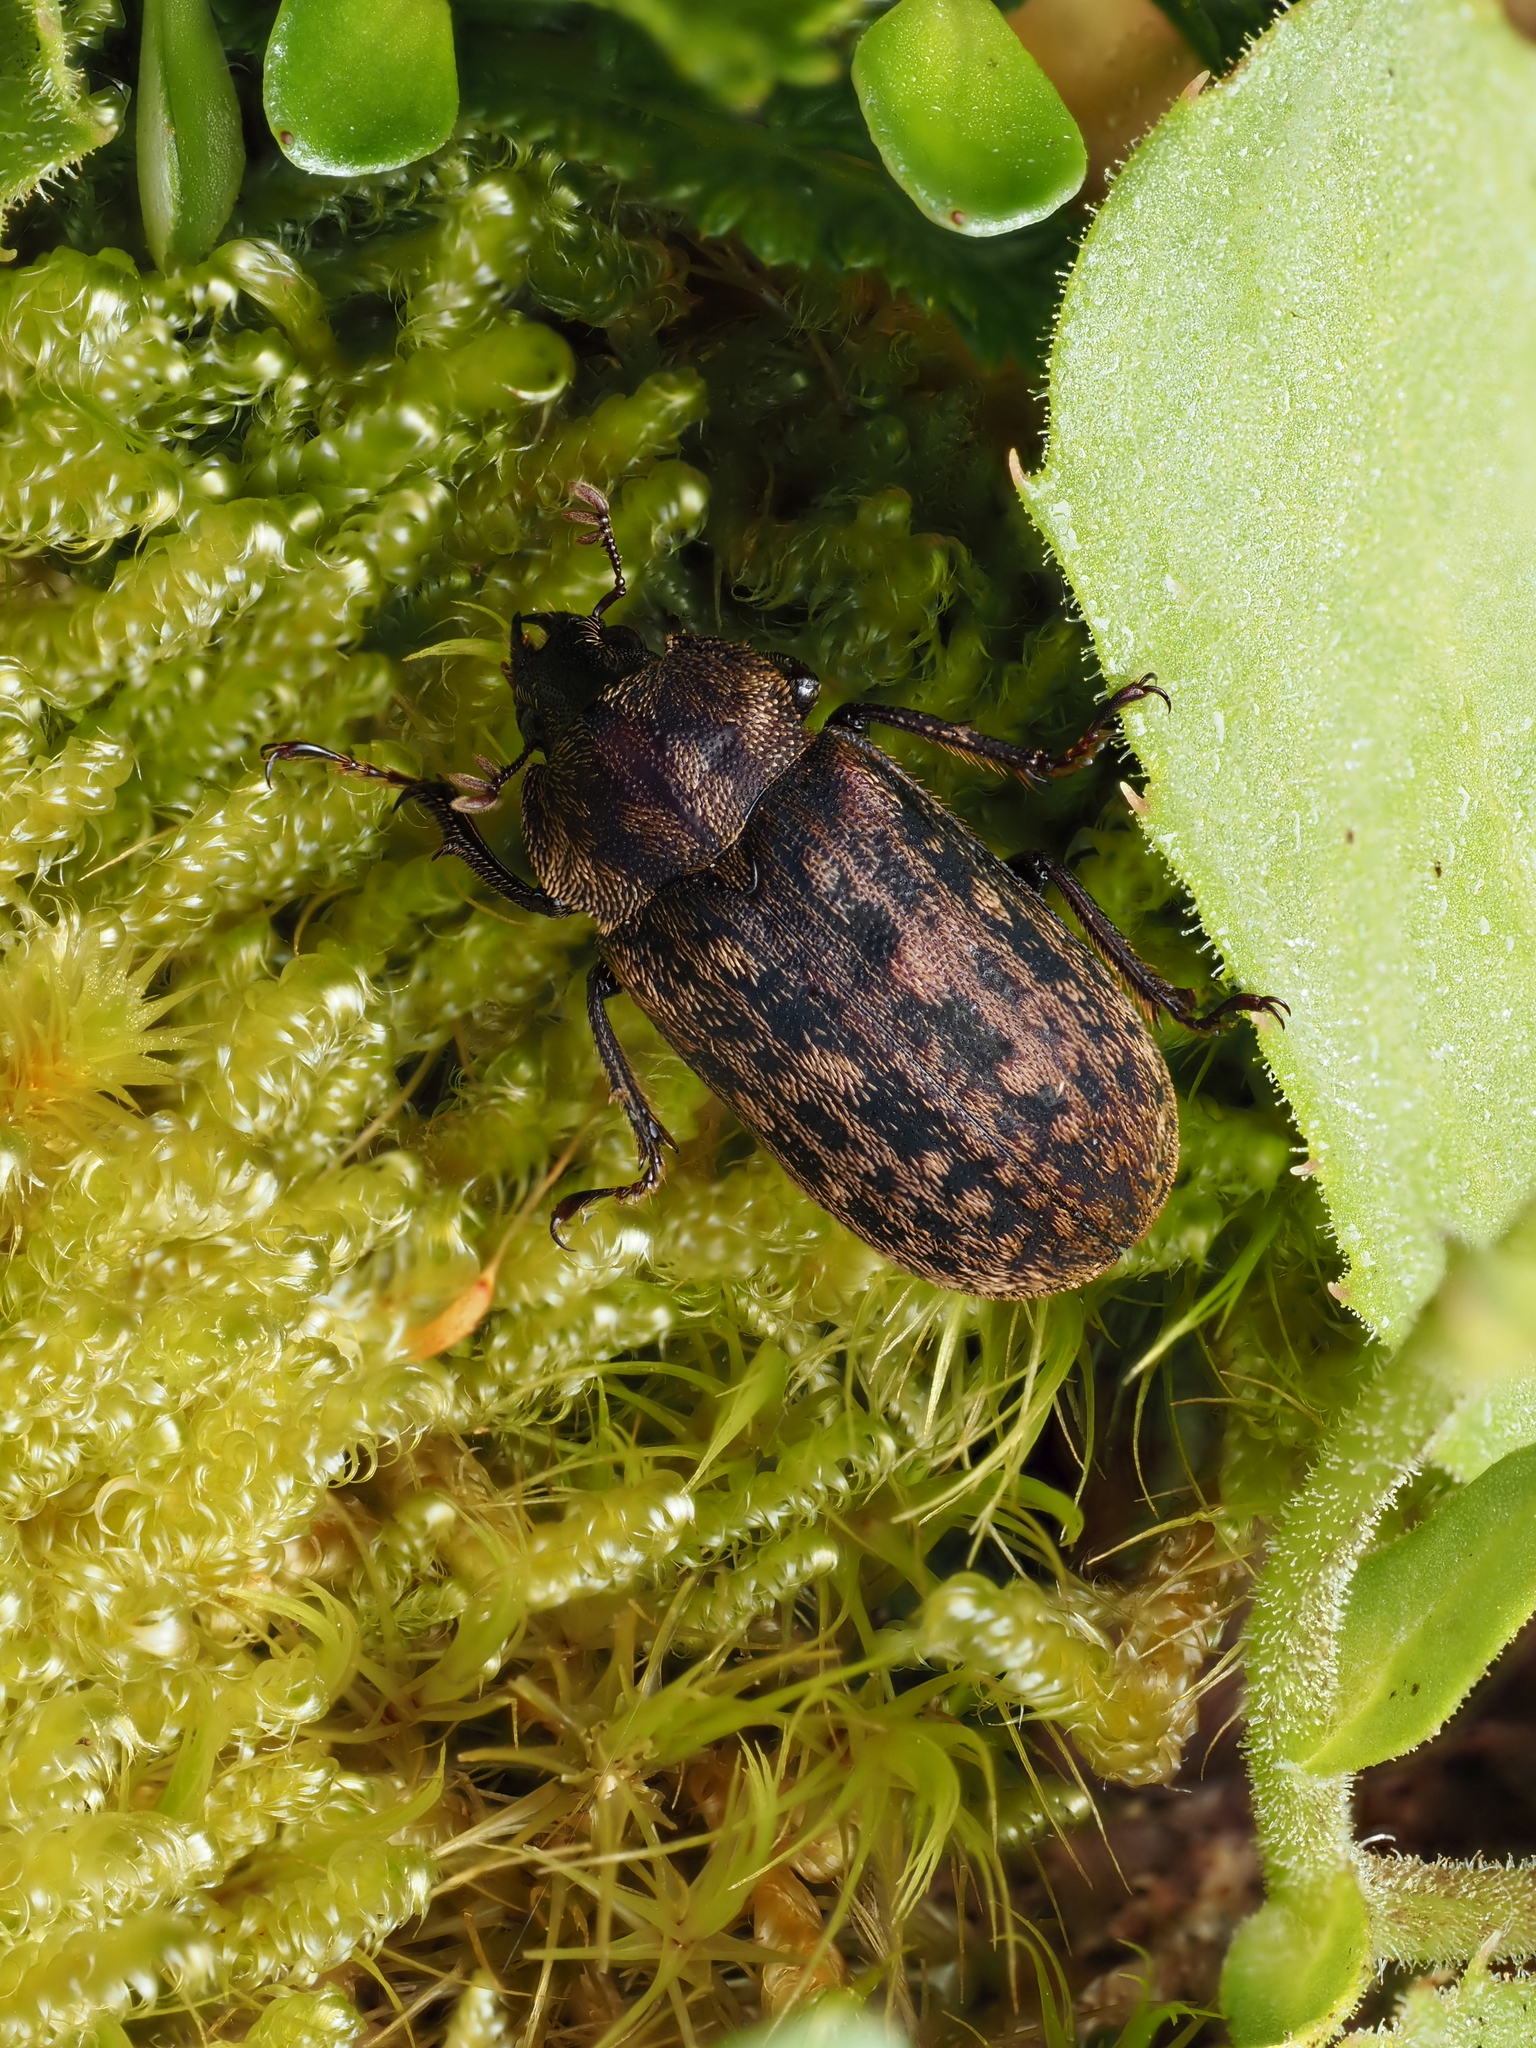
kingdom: Animalia
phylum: Arthropoda
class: Insecta
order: Coleoptera
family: Lucanidae
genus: Mitophyllus
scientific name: Mitophyllus parrianus
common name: Parry's stag beetle
